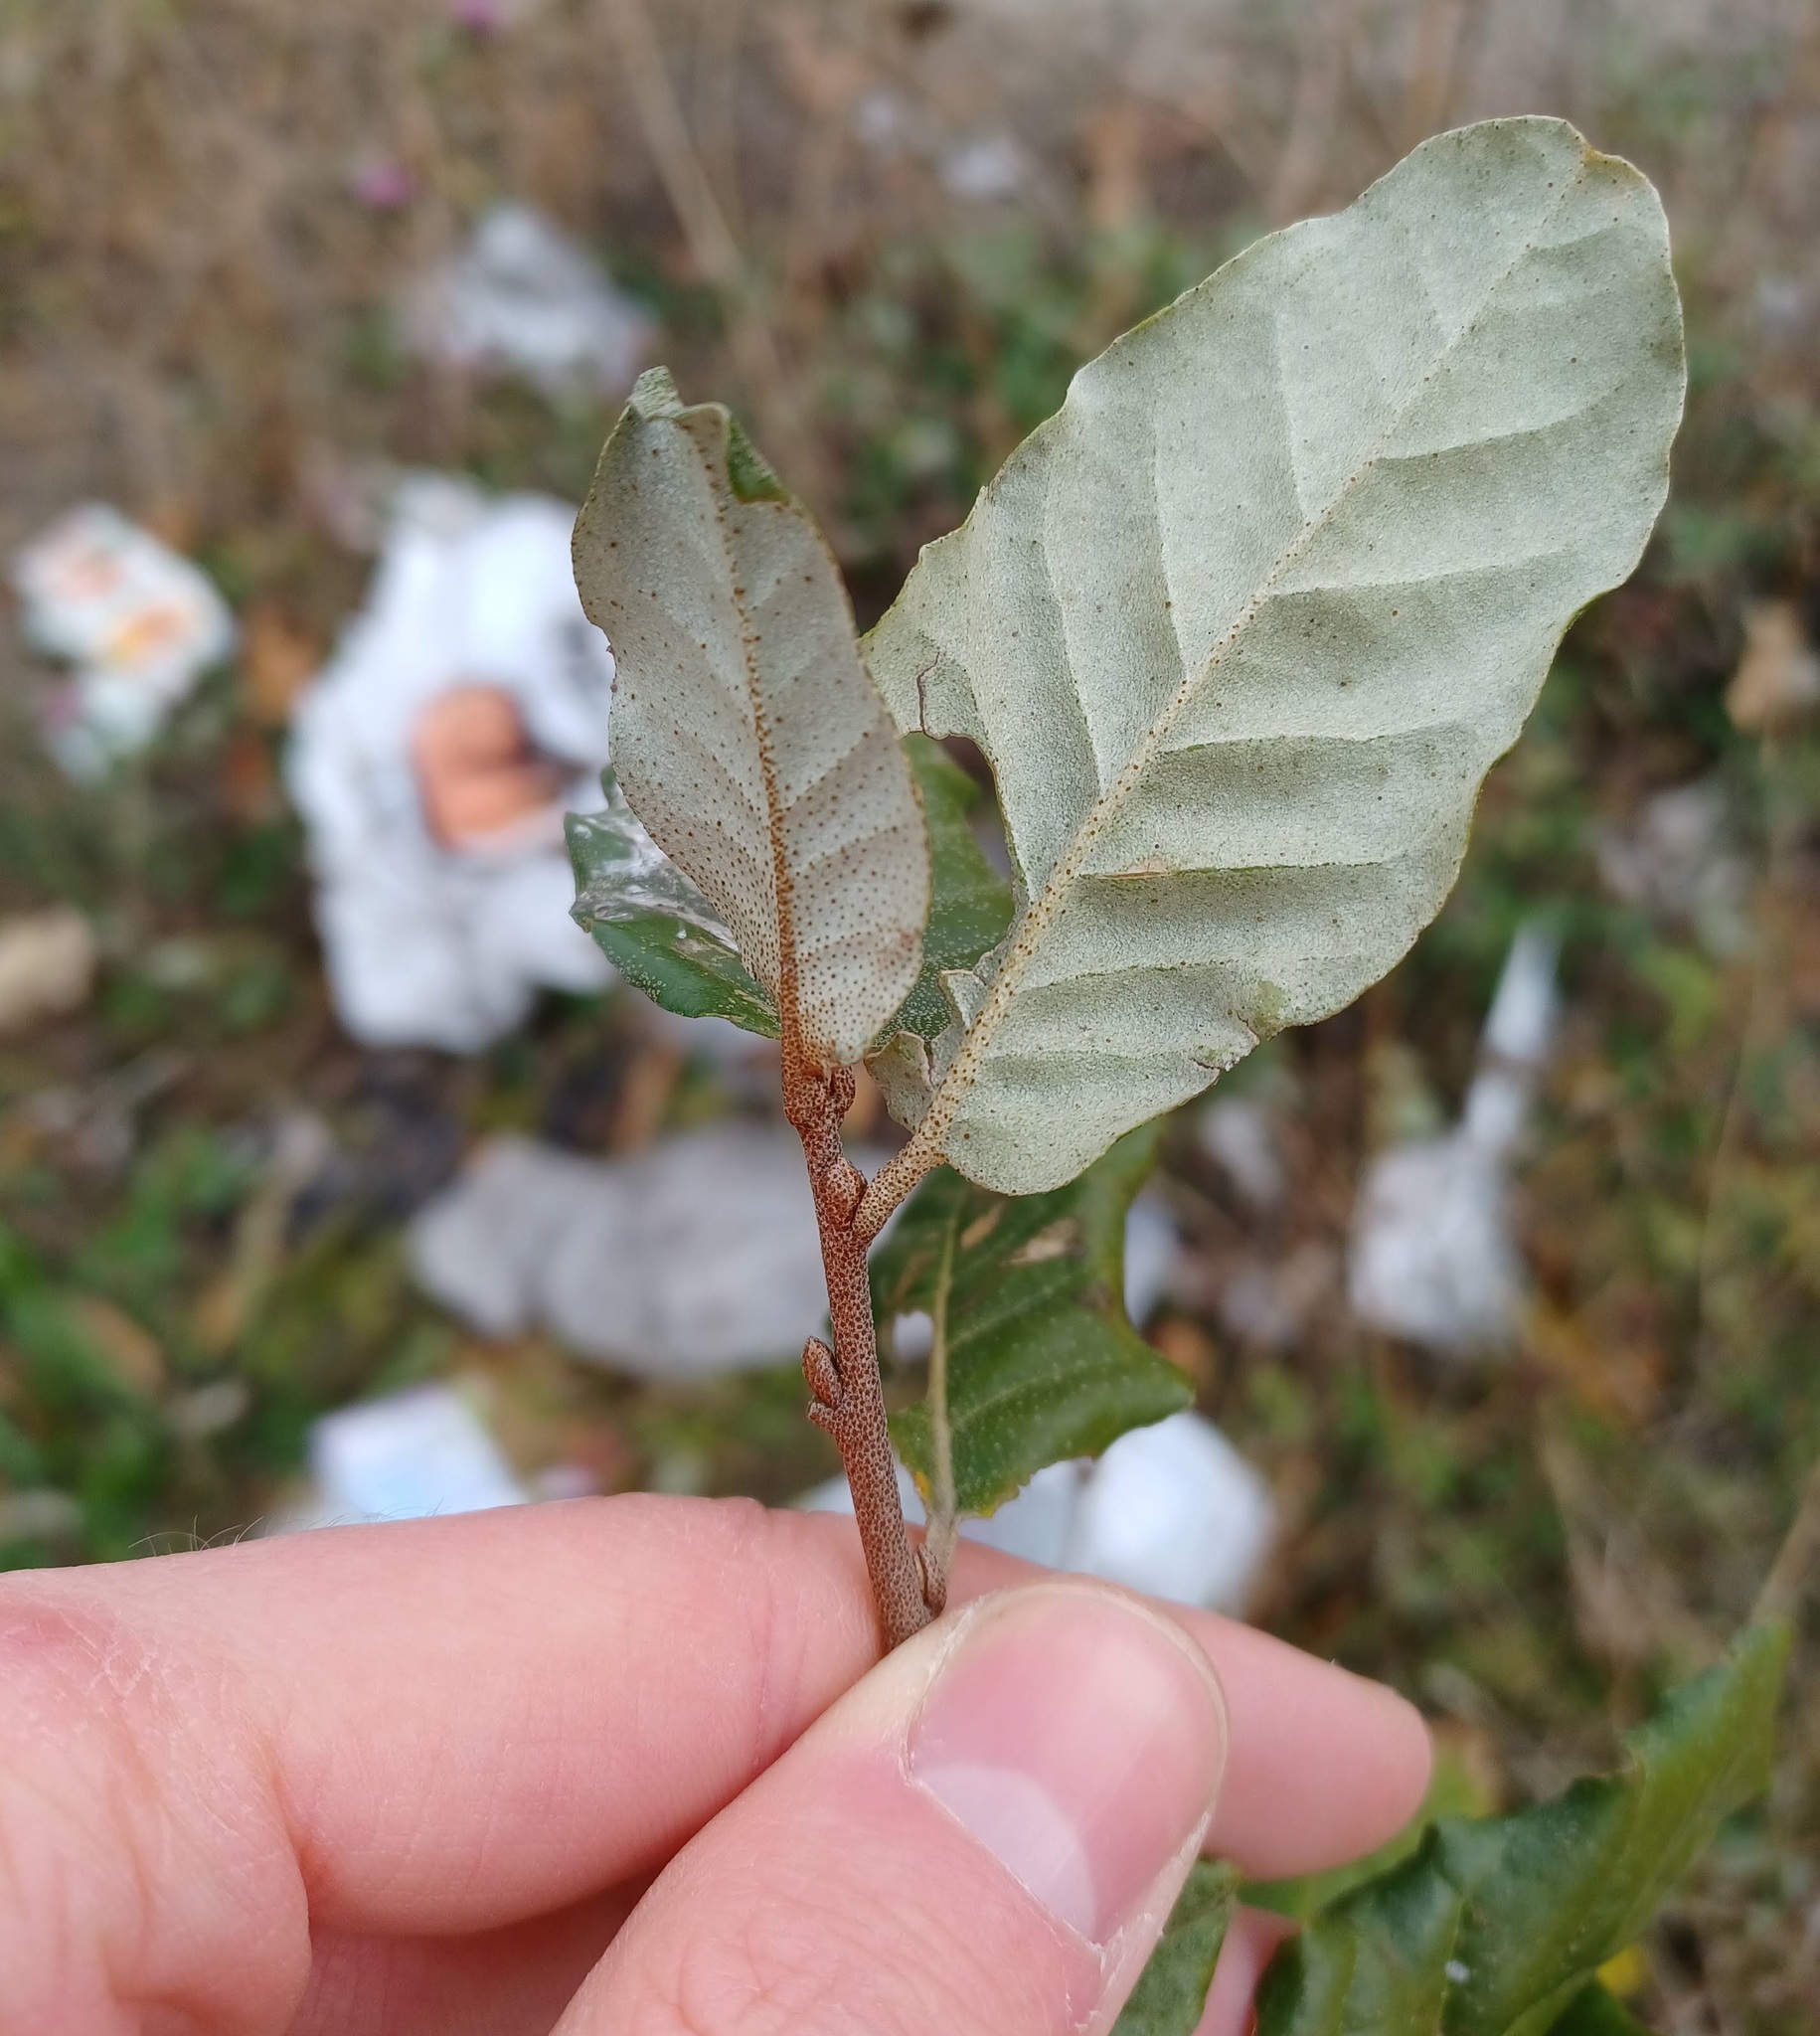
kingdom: Plantae
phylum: Tracheophyta
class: Magnoliopsida
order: Rosales
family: Elaeagnaceae
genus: Elaeagnus
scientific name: Elaeagnus umbellata
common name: Autumn olive
